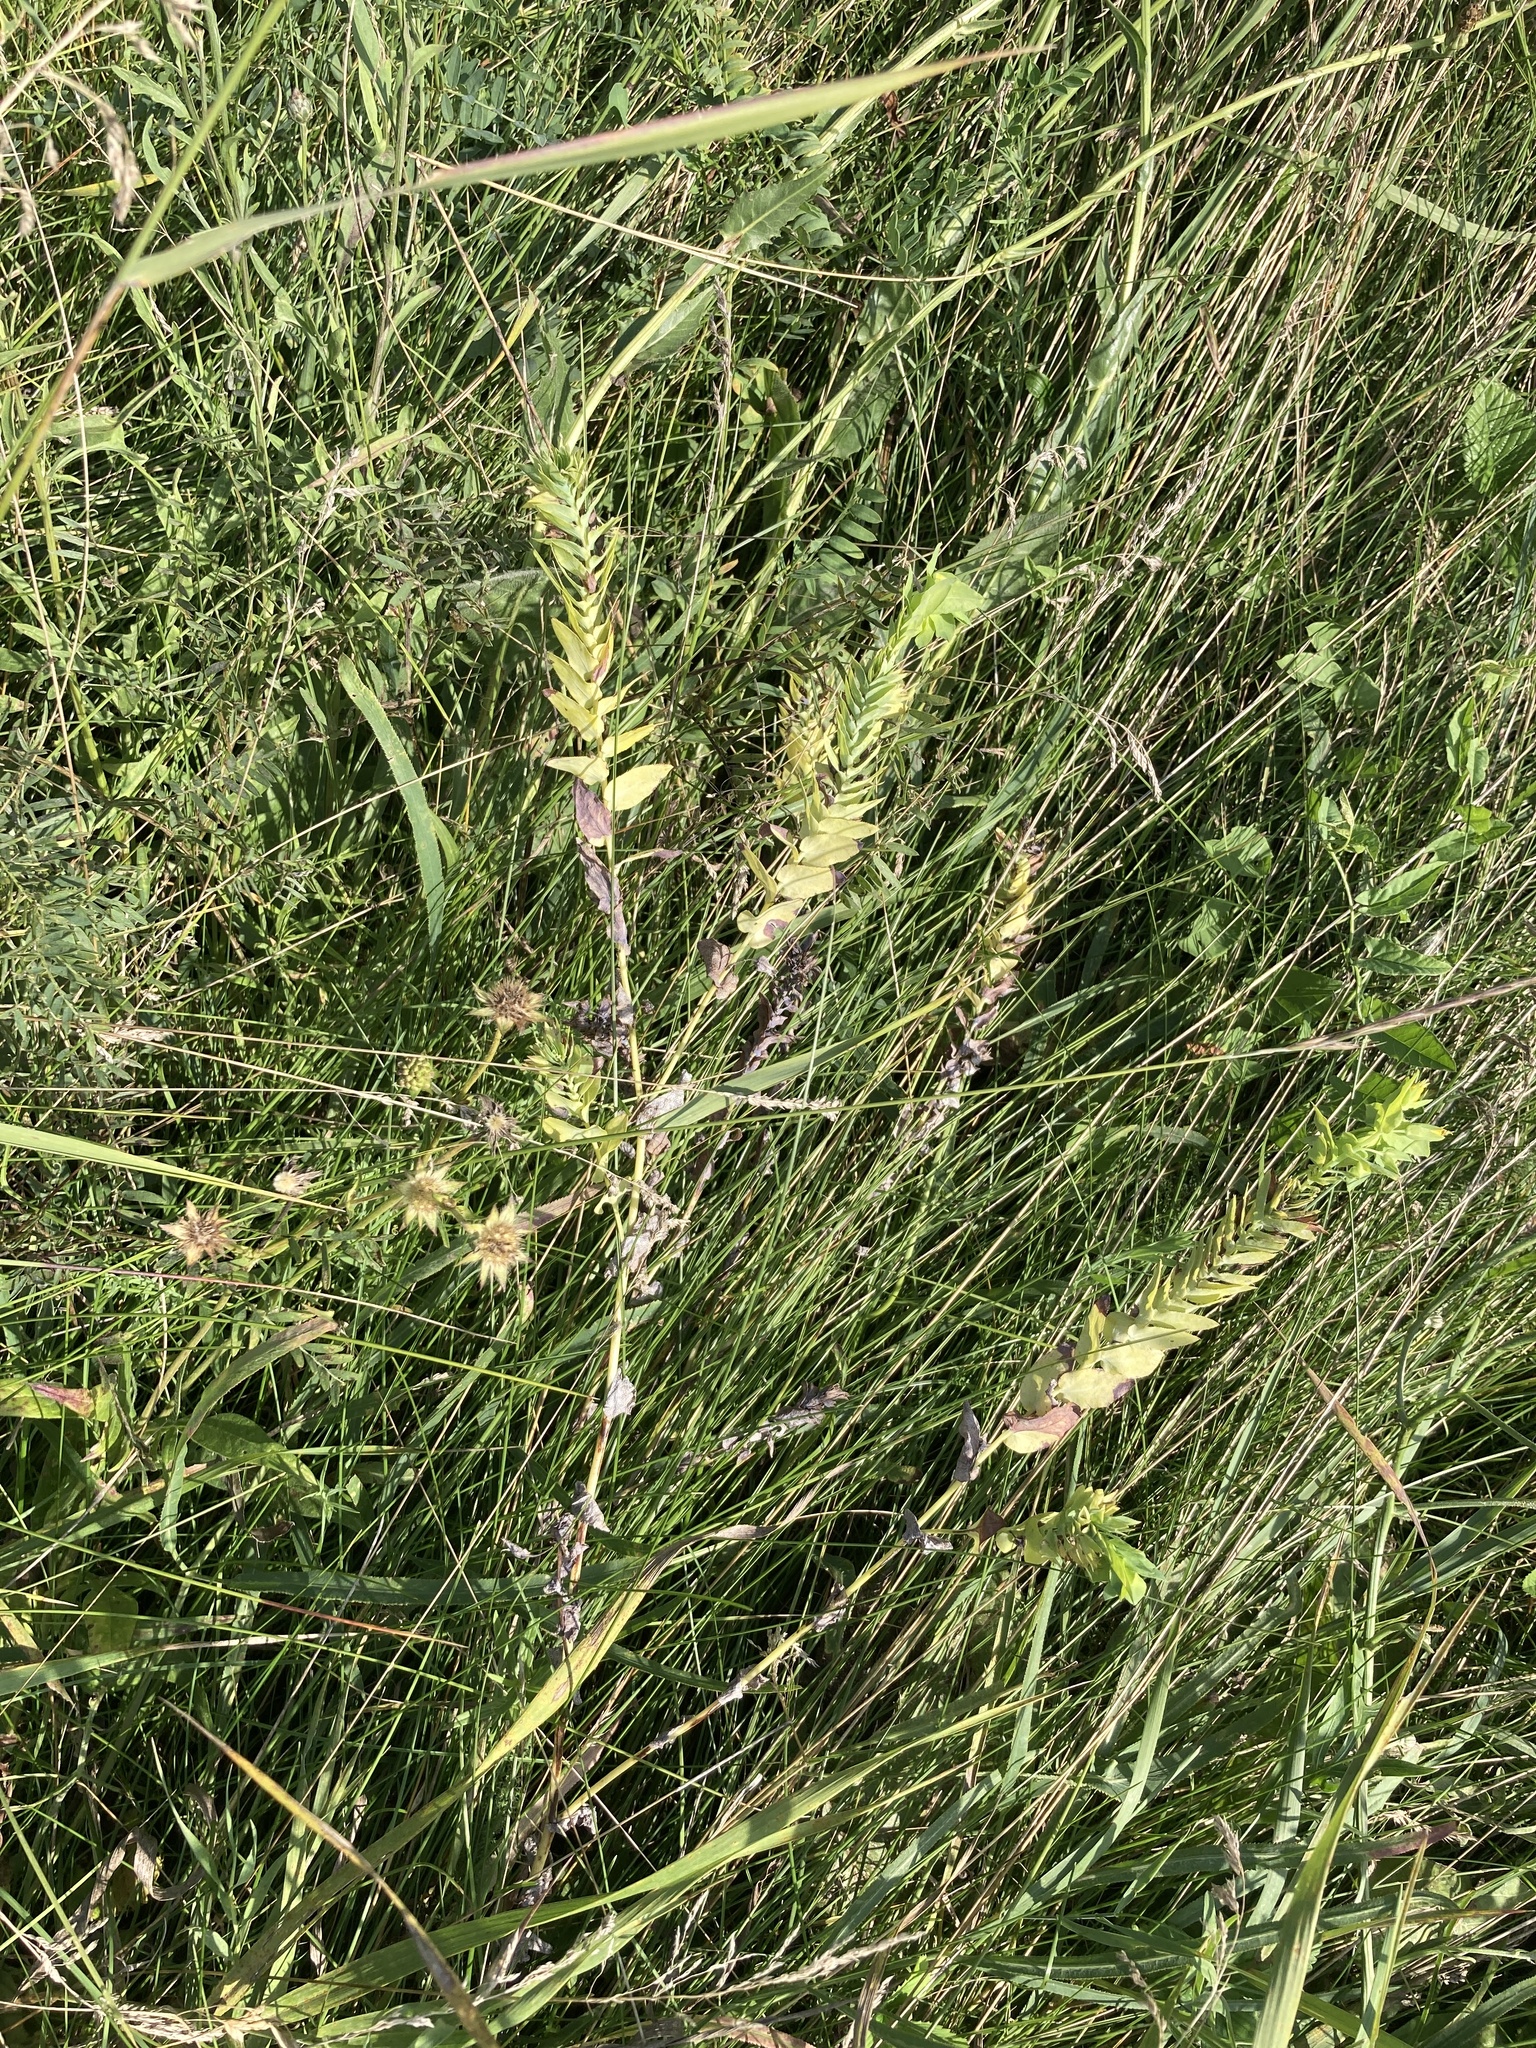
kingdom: Plantae
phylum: Tracheophyta
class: Magnoliopsida
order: Boraginales
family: Boraginaceae
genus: Cerinthe
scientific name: Cerinthe minor
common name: Lesser honeywort
